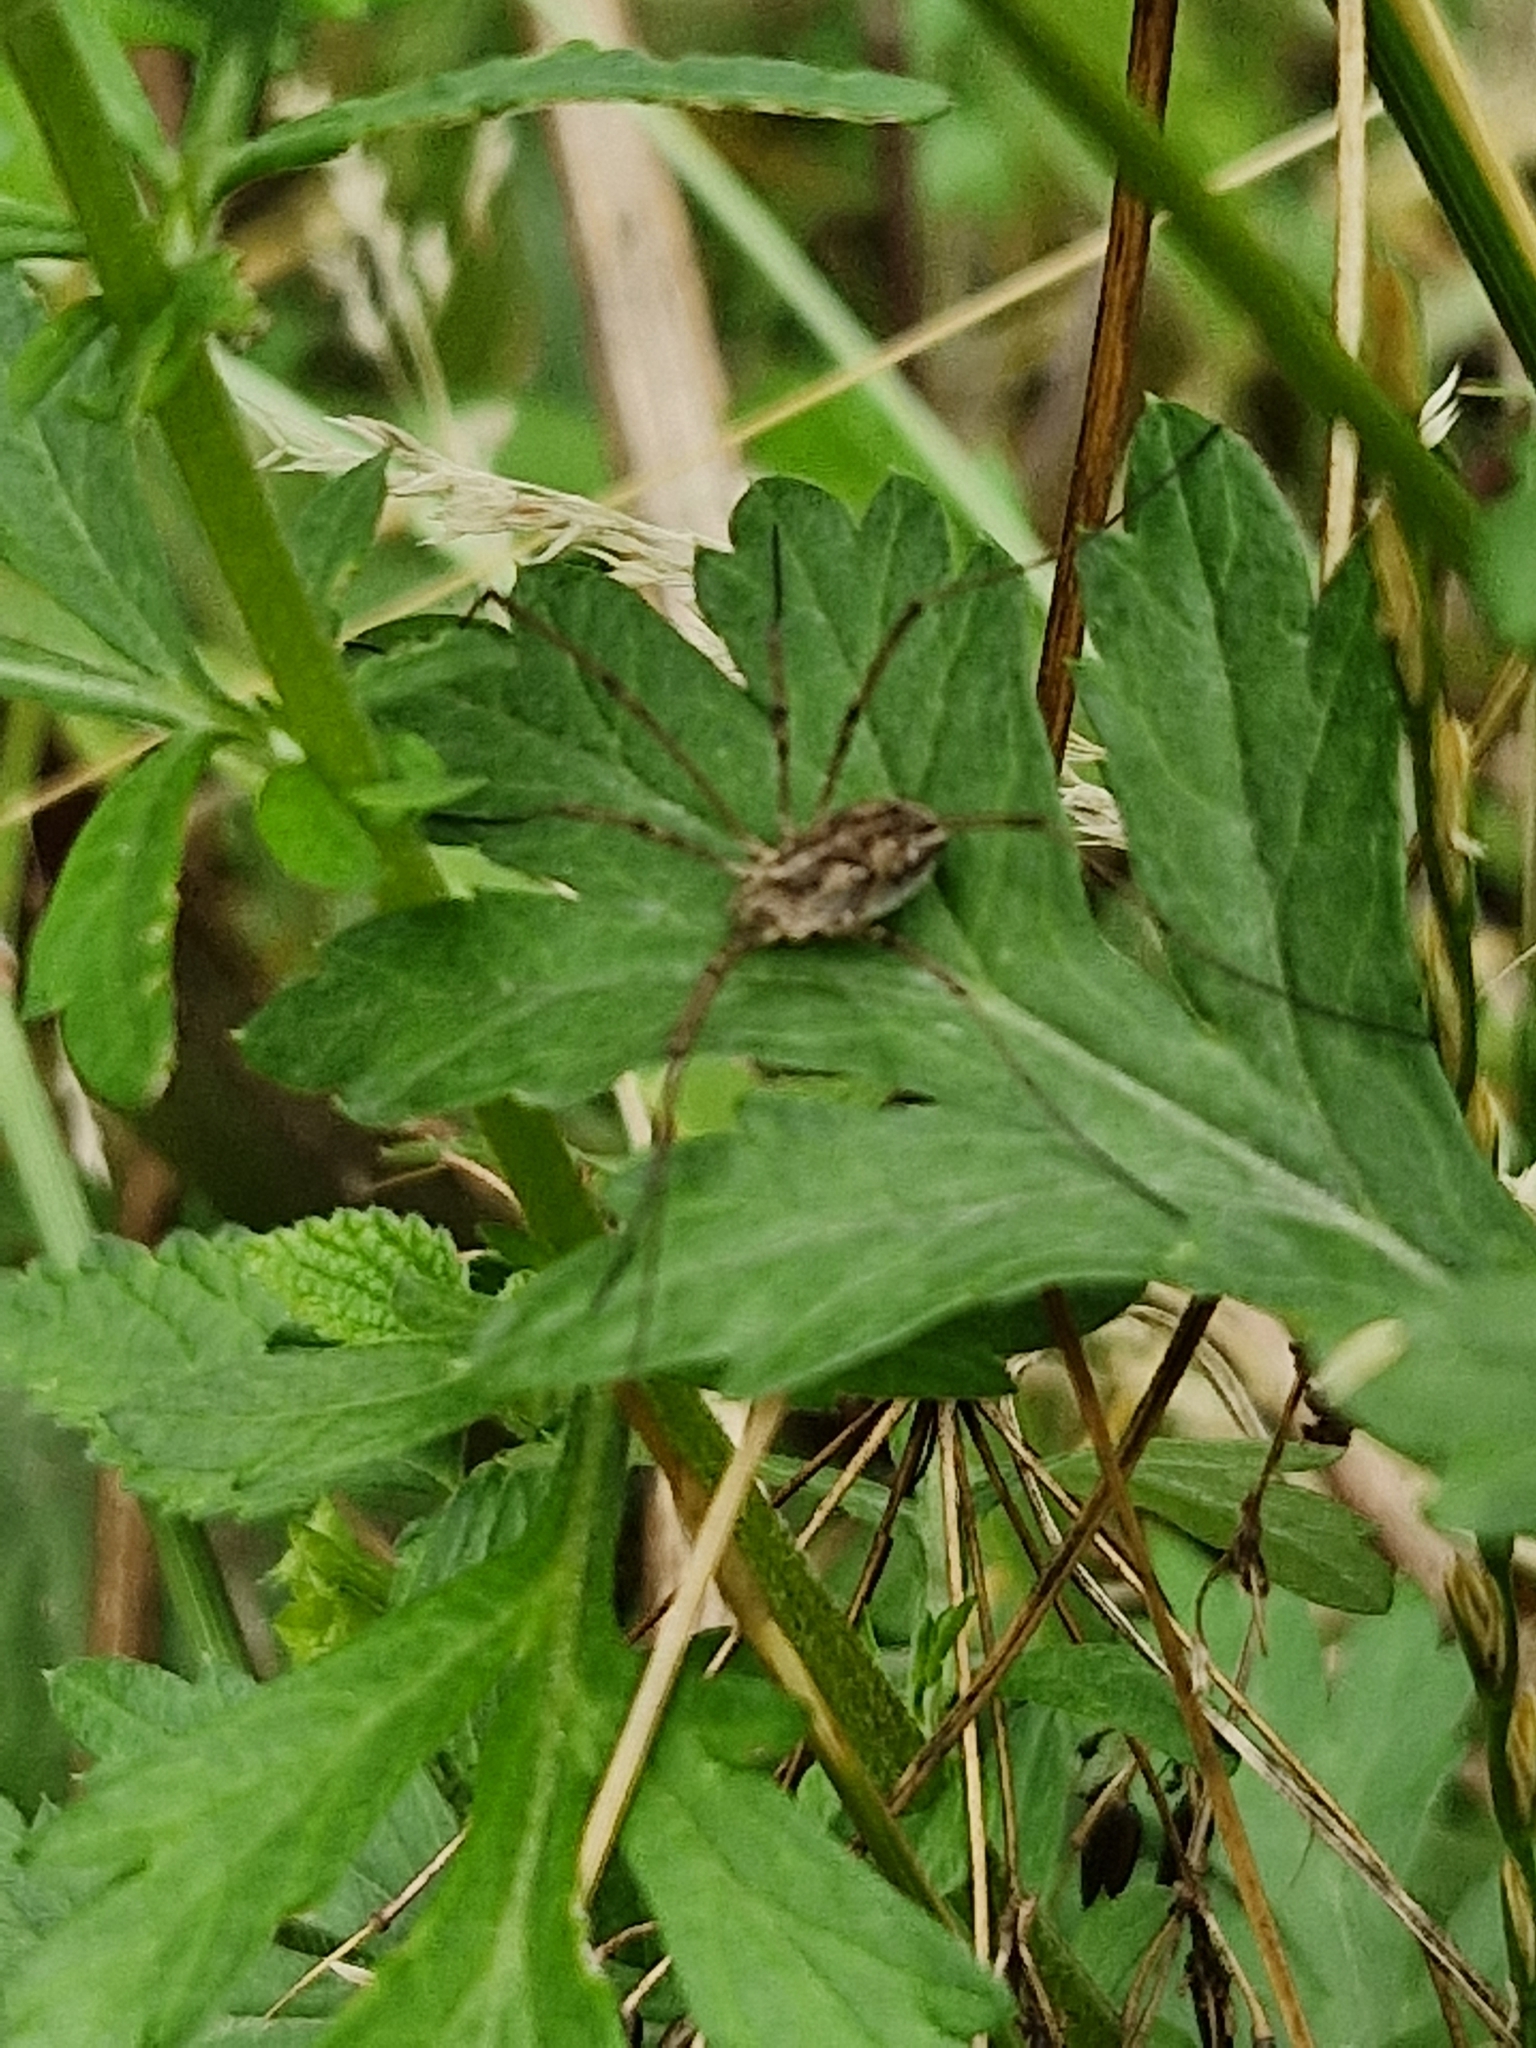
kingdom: Animalia
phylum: Arthropoda
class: Arachnida
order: Opiliones
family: Phalangiidae
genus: Phalangium
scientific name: Phalangium opilio
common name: Daddy longleg
